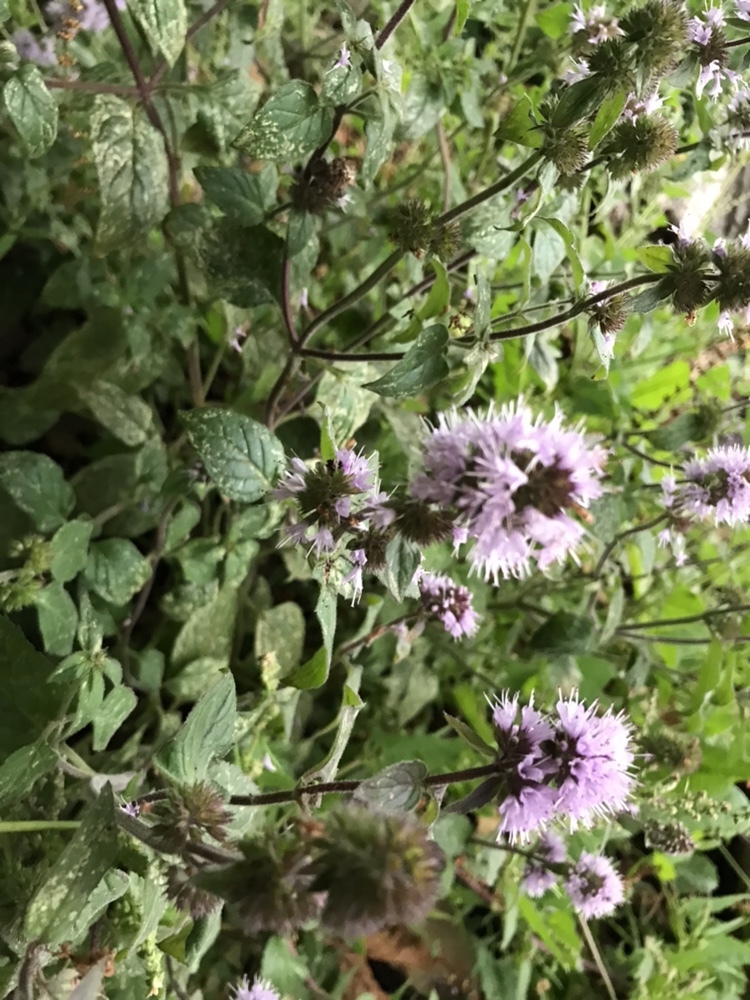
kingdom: Plantae
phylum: Tracheophyta
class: Magnoliopsida
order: Lamiales
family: Lamiaceae
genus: Mentha
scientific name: Mentha aquatica
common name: Water mint
